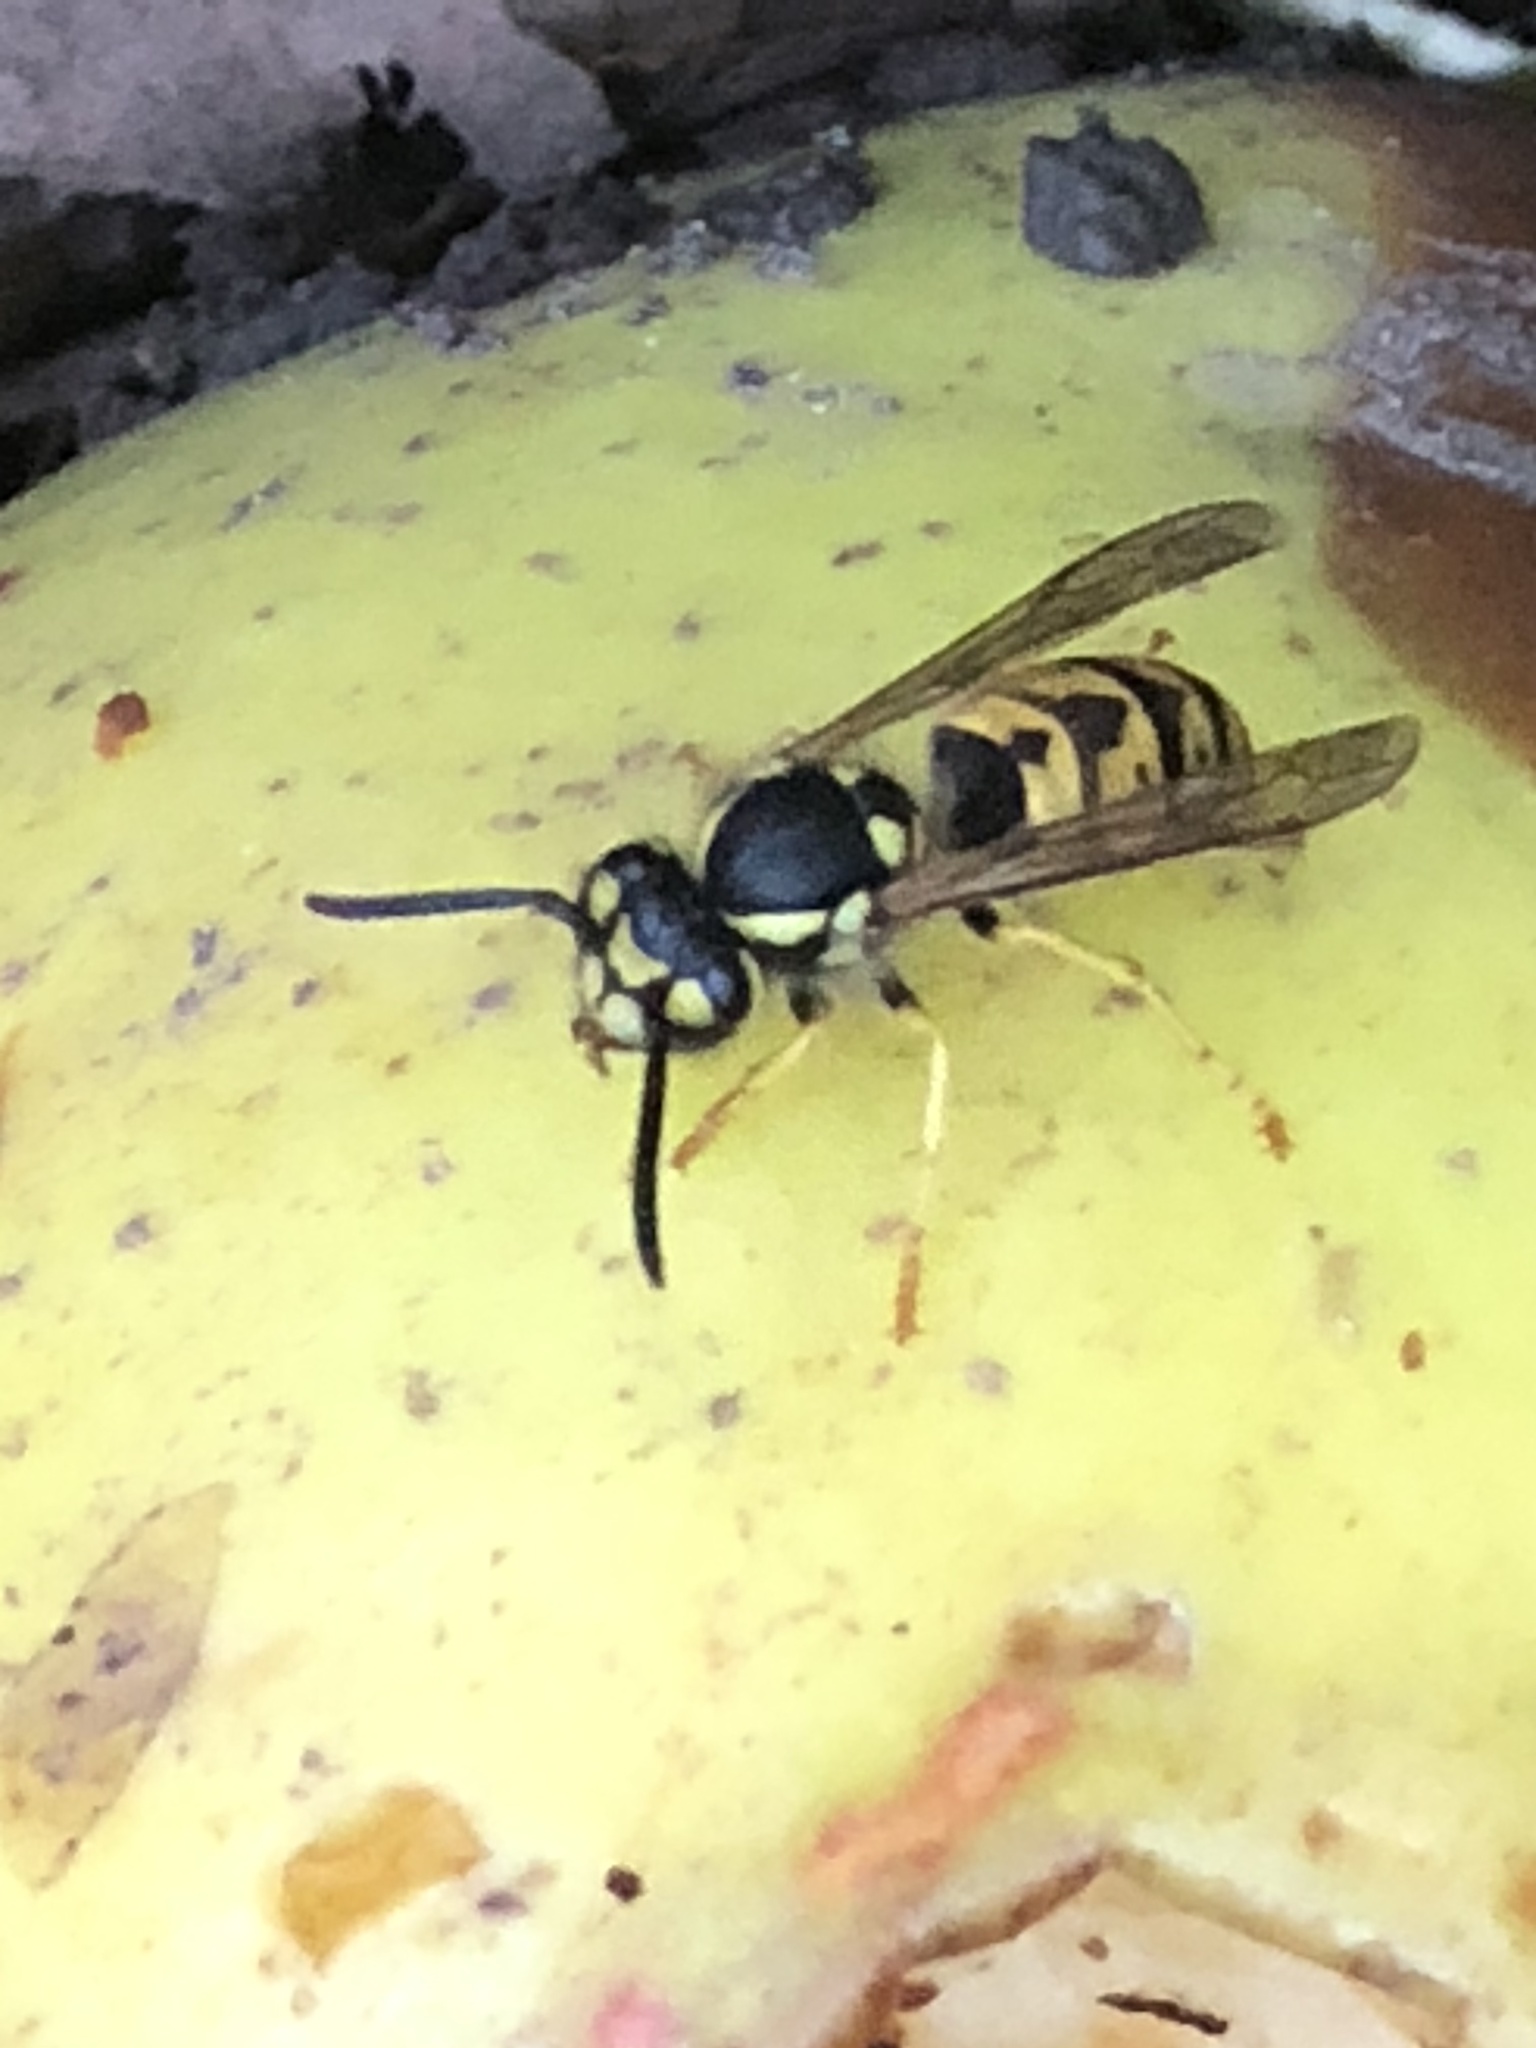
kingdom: Animalia
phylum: Arthropoda
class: Insecta
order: Hymenoptera
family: Vespidae
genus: Vespula
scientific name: Vespula germanica
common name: German wasp
